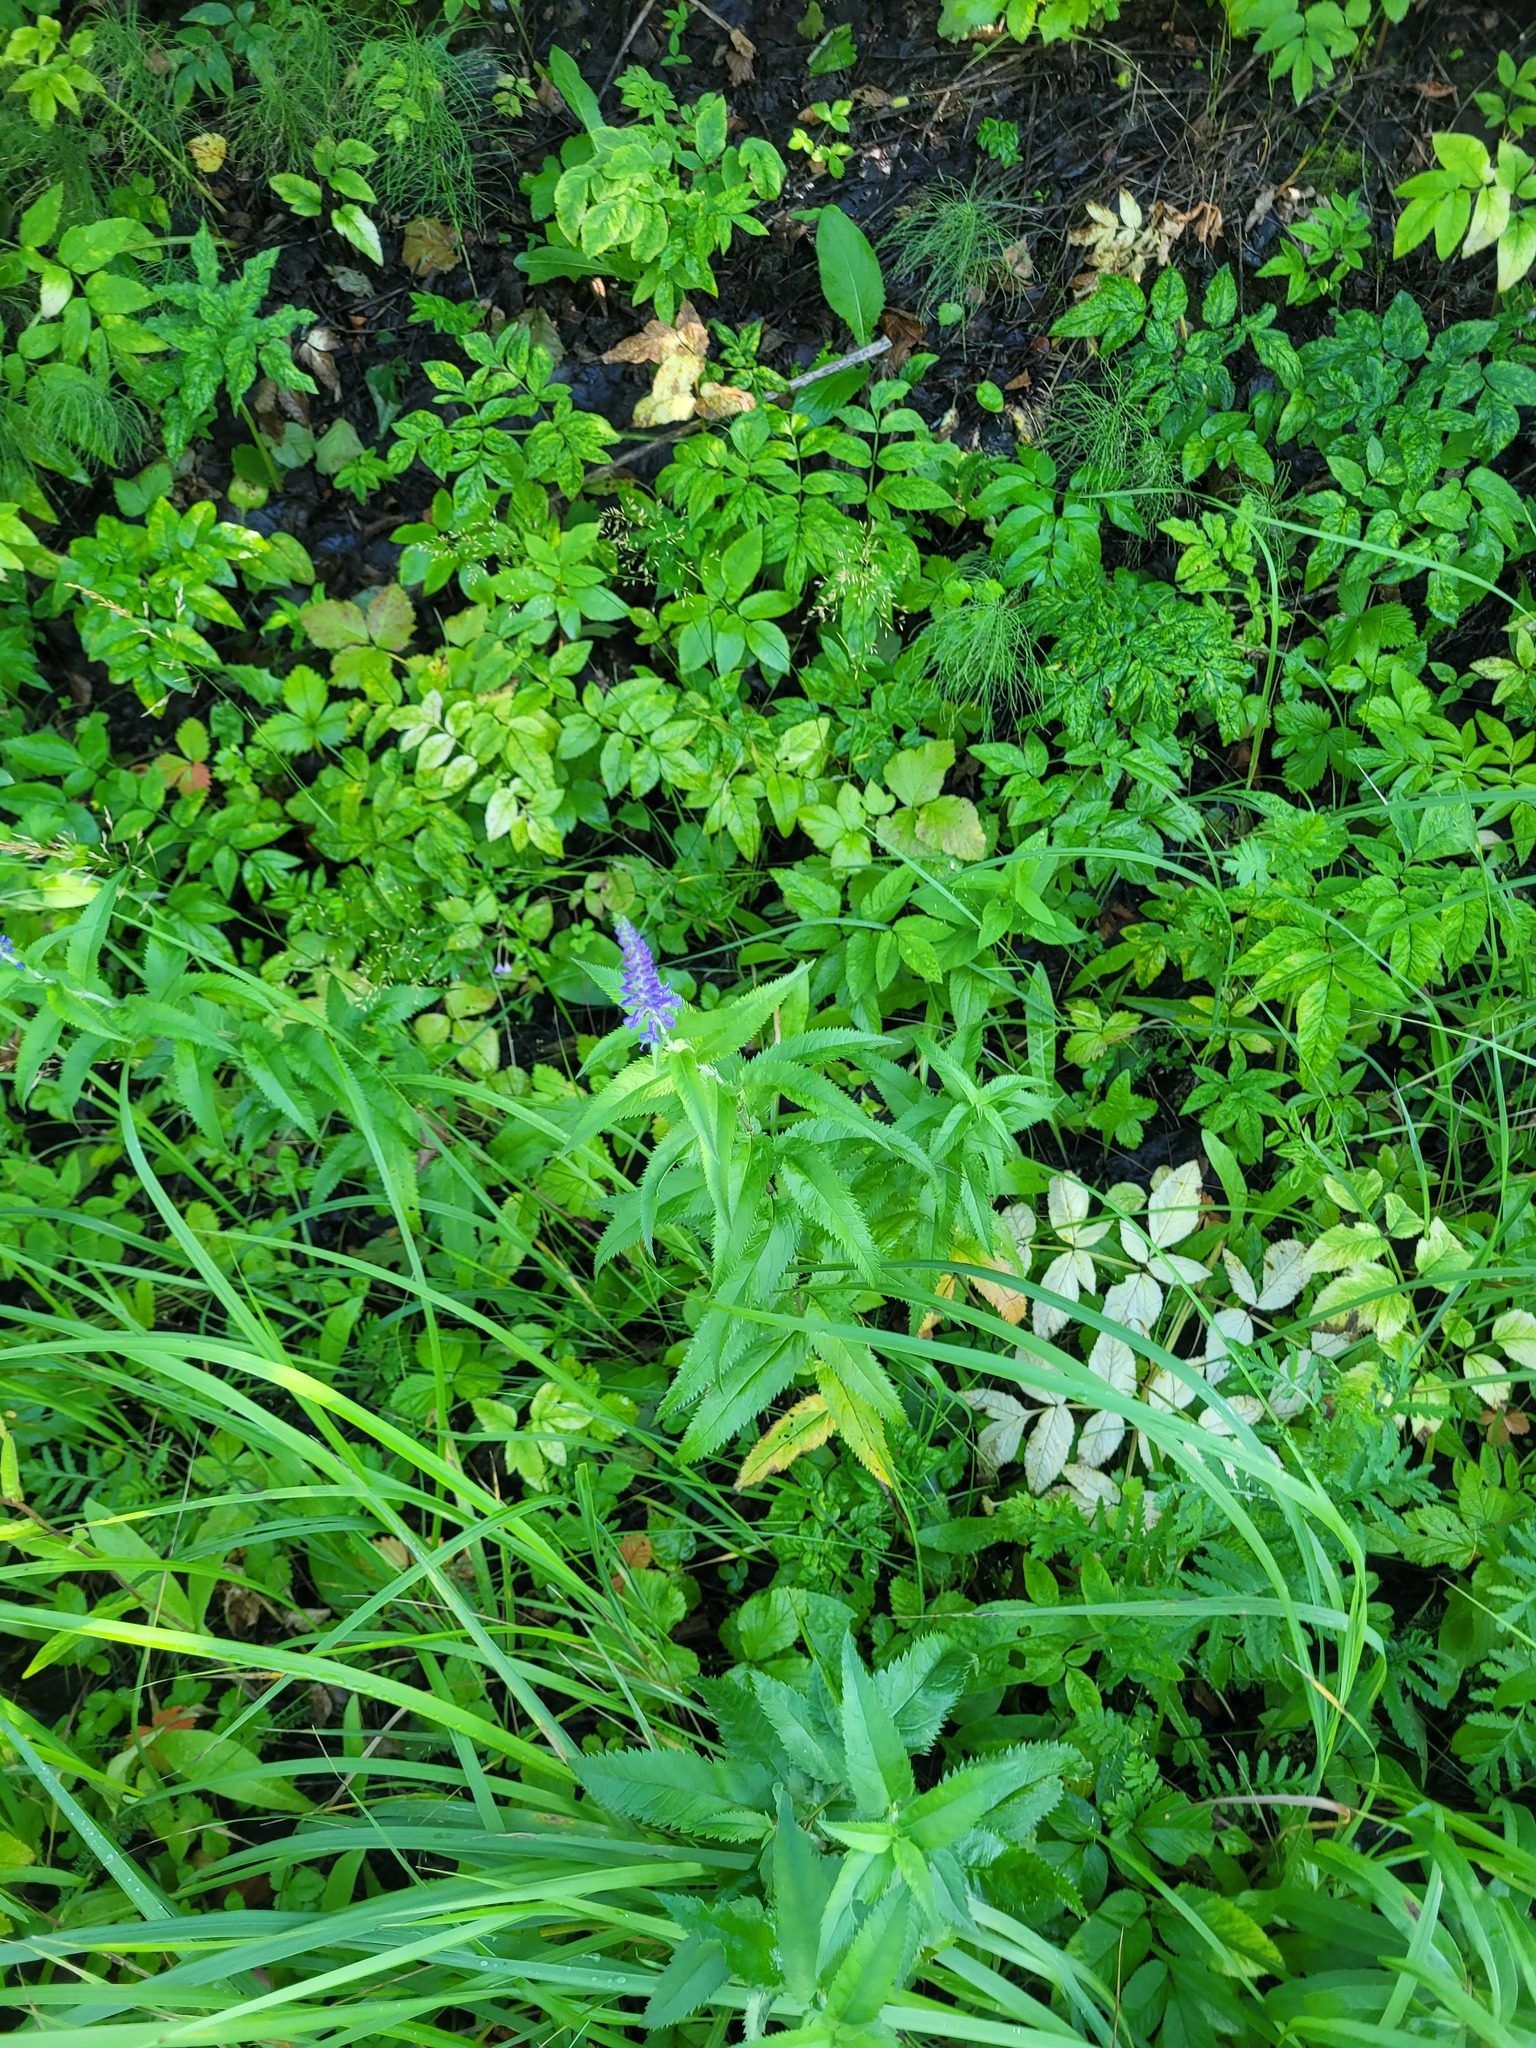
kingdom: Plantae
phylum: Tracheophyta
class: Magnoliopsida
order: Lamiales
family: Plantaginaceae
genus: Veronica
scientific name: Veronica longifolia
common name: Garden speedwell
